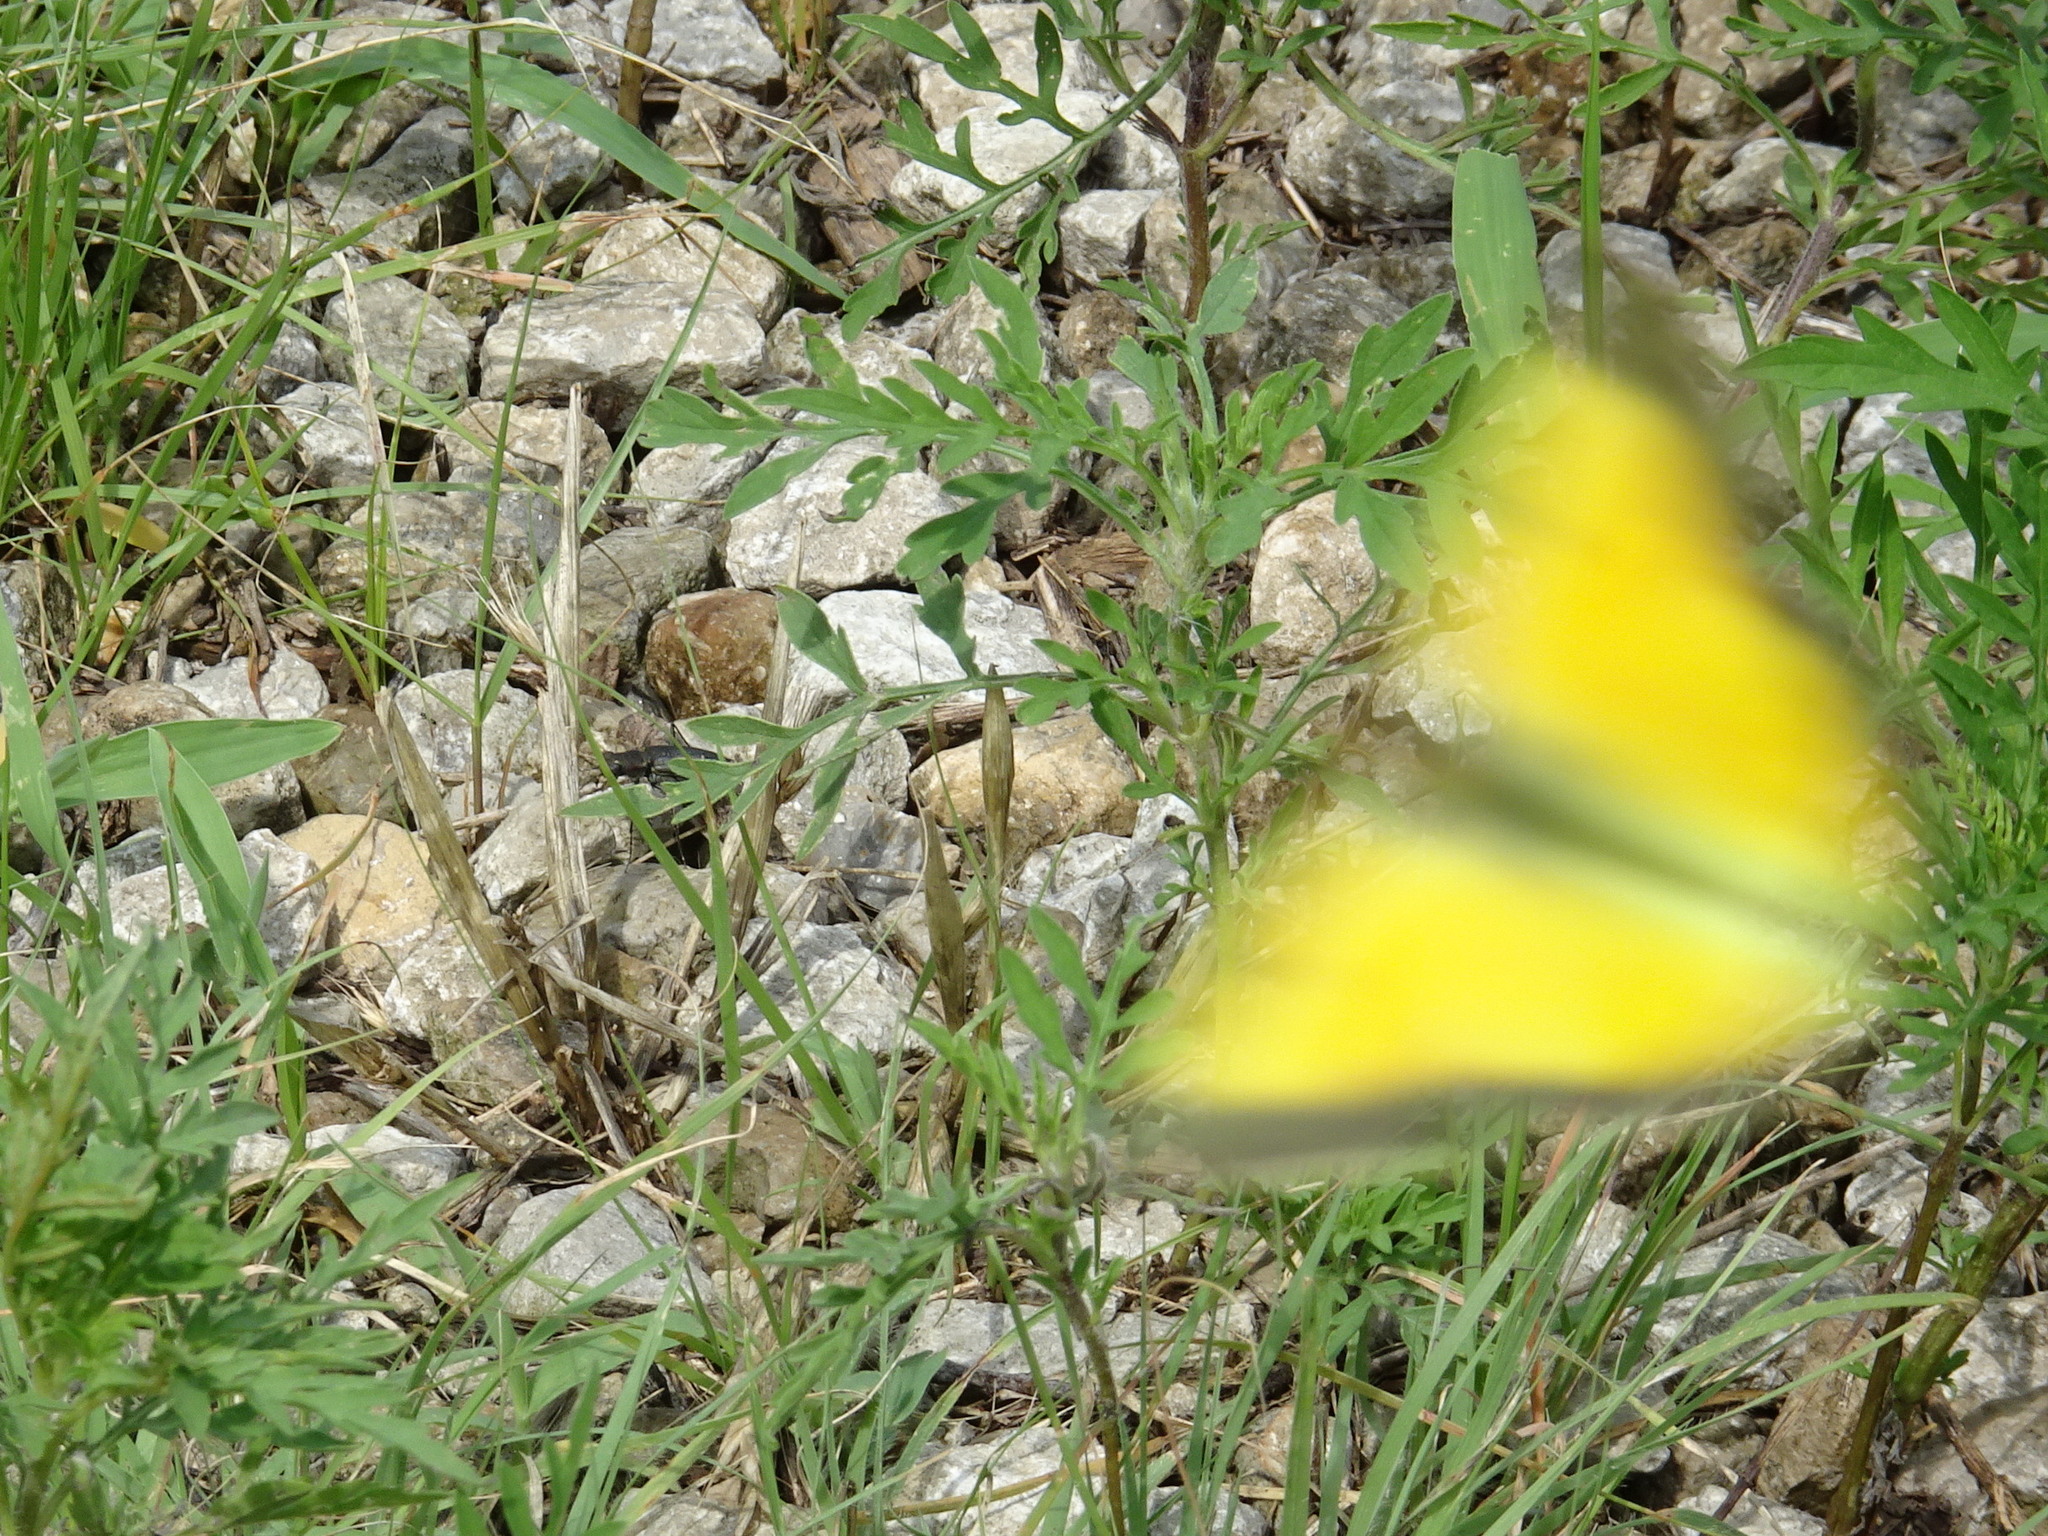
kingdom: Animalia
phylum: Arthropoda
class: Insecta
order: Lepidoptera
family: Pieridae
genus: Colias
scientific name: Colias eurytheme
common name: Alfalfa butterfly
